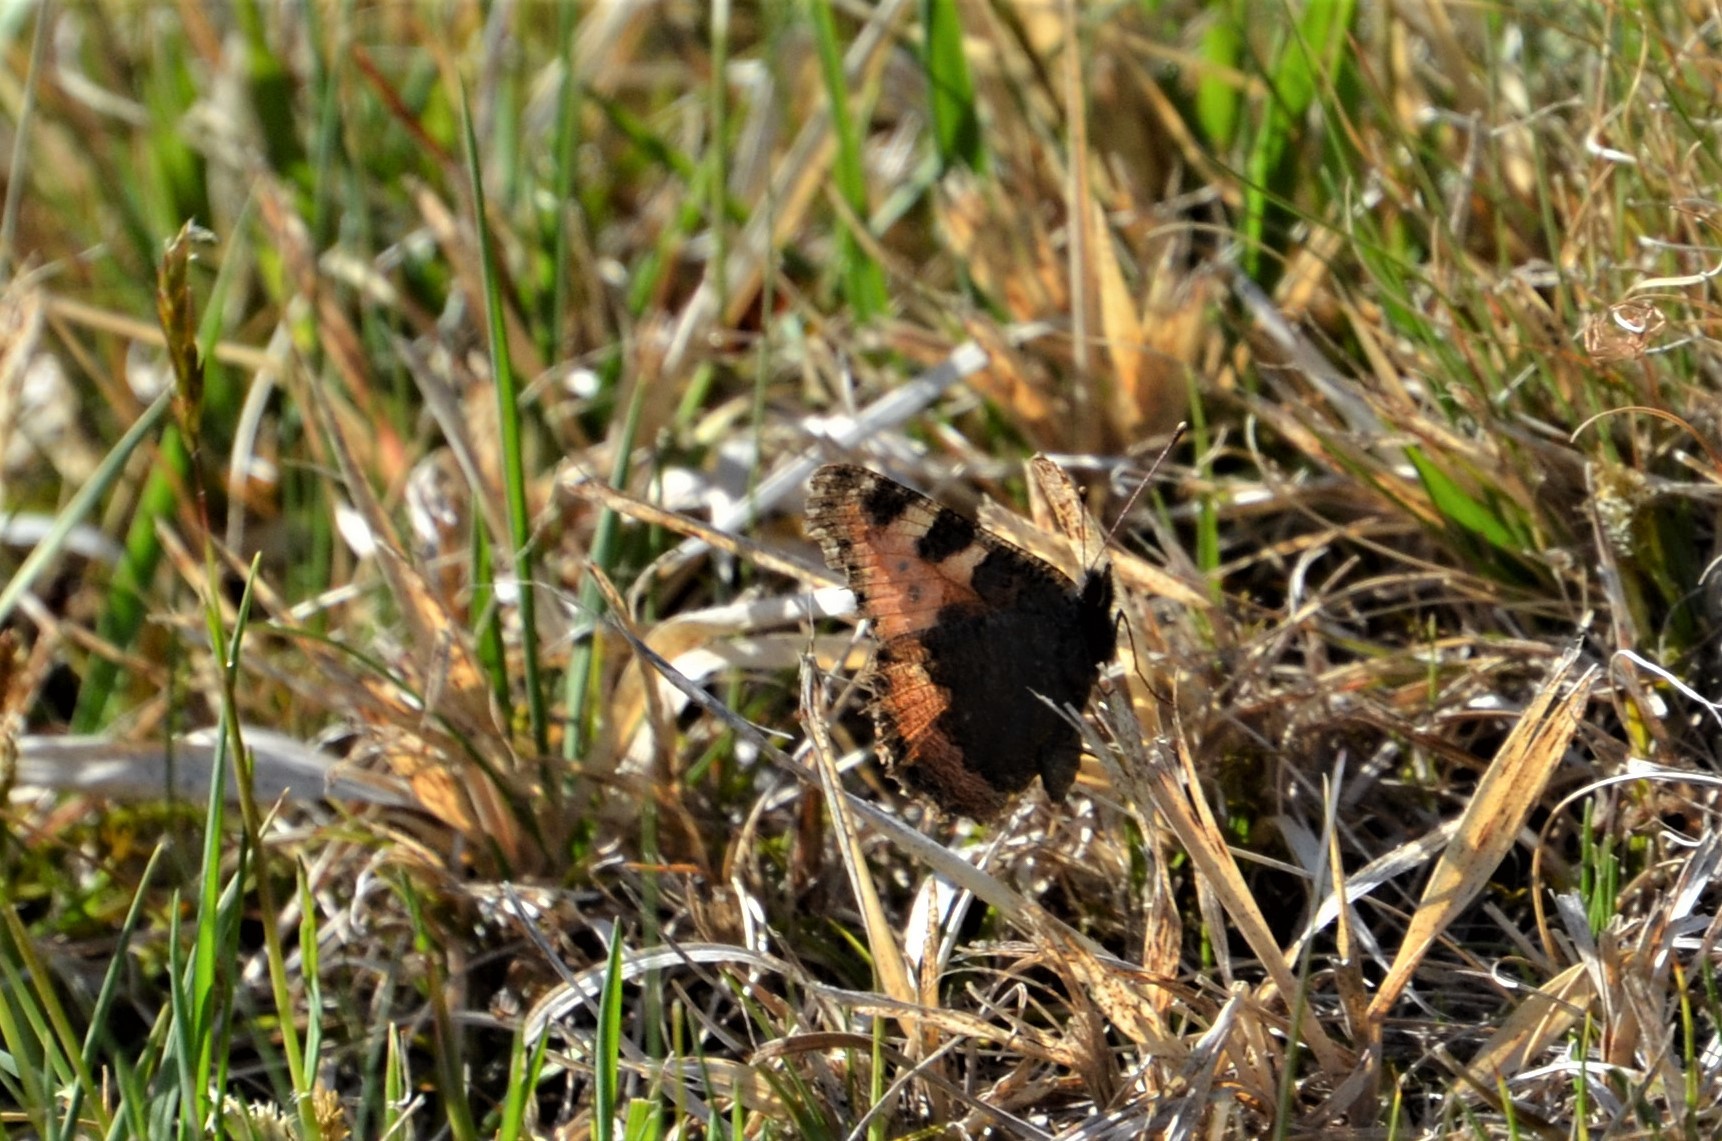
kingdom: Animalia
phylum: Arthropoda
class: Insecta
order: Lepidoptera
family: Nymphalidae
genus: Aglais
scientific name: Aglais urticae
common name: Small tortoiseshell
